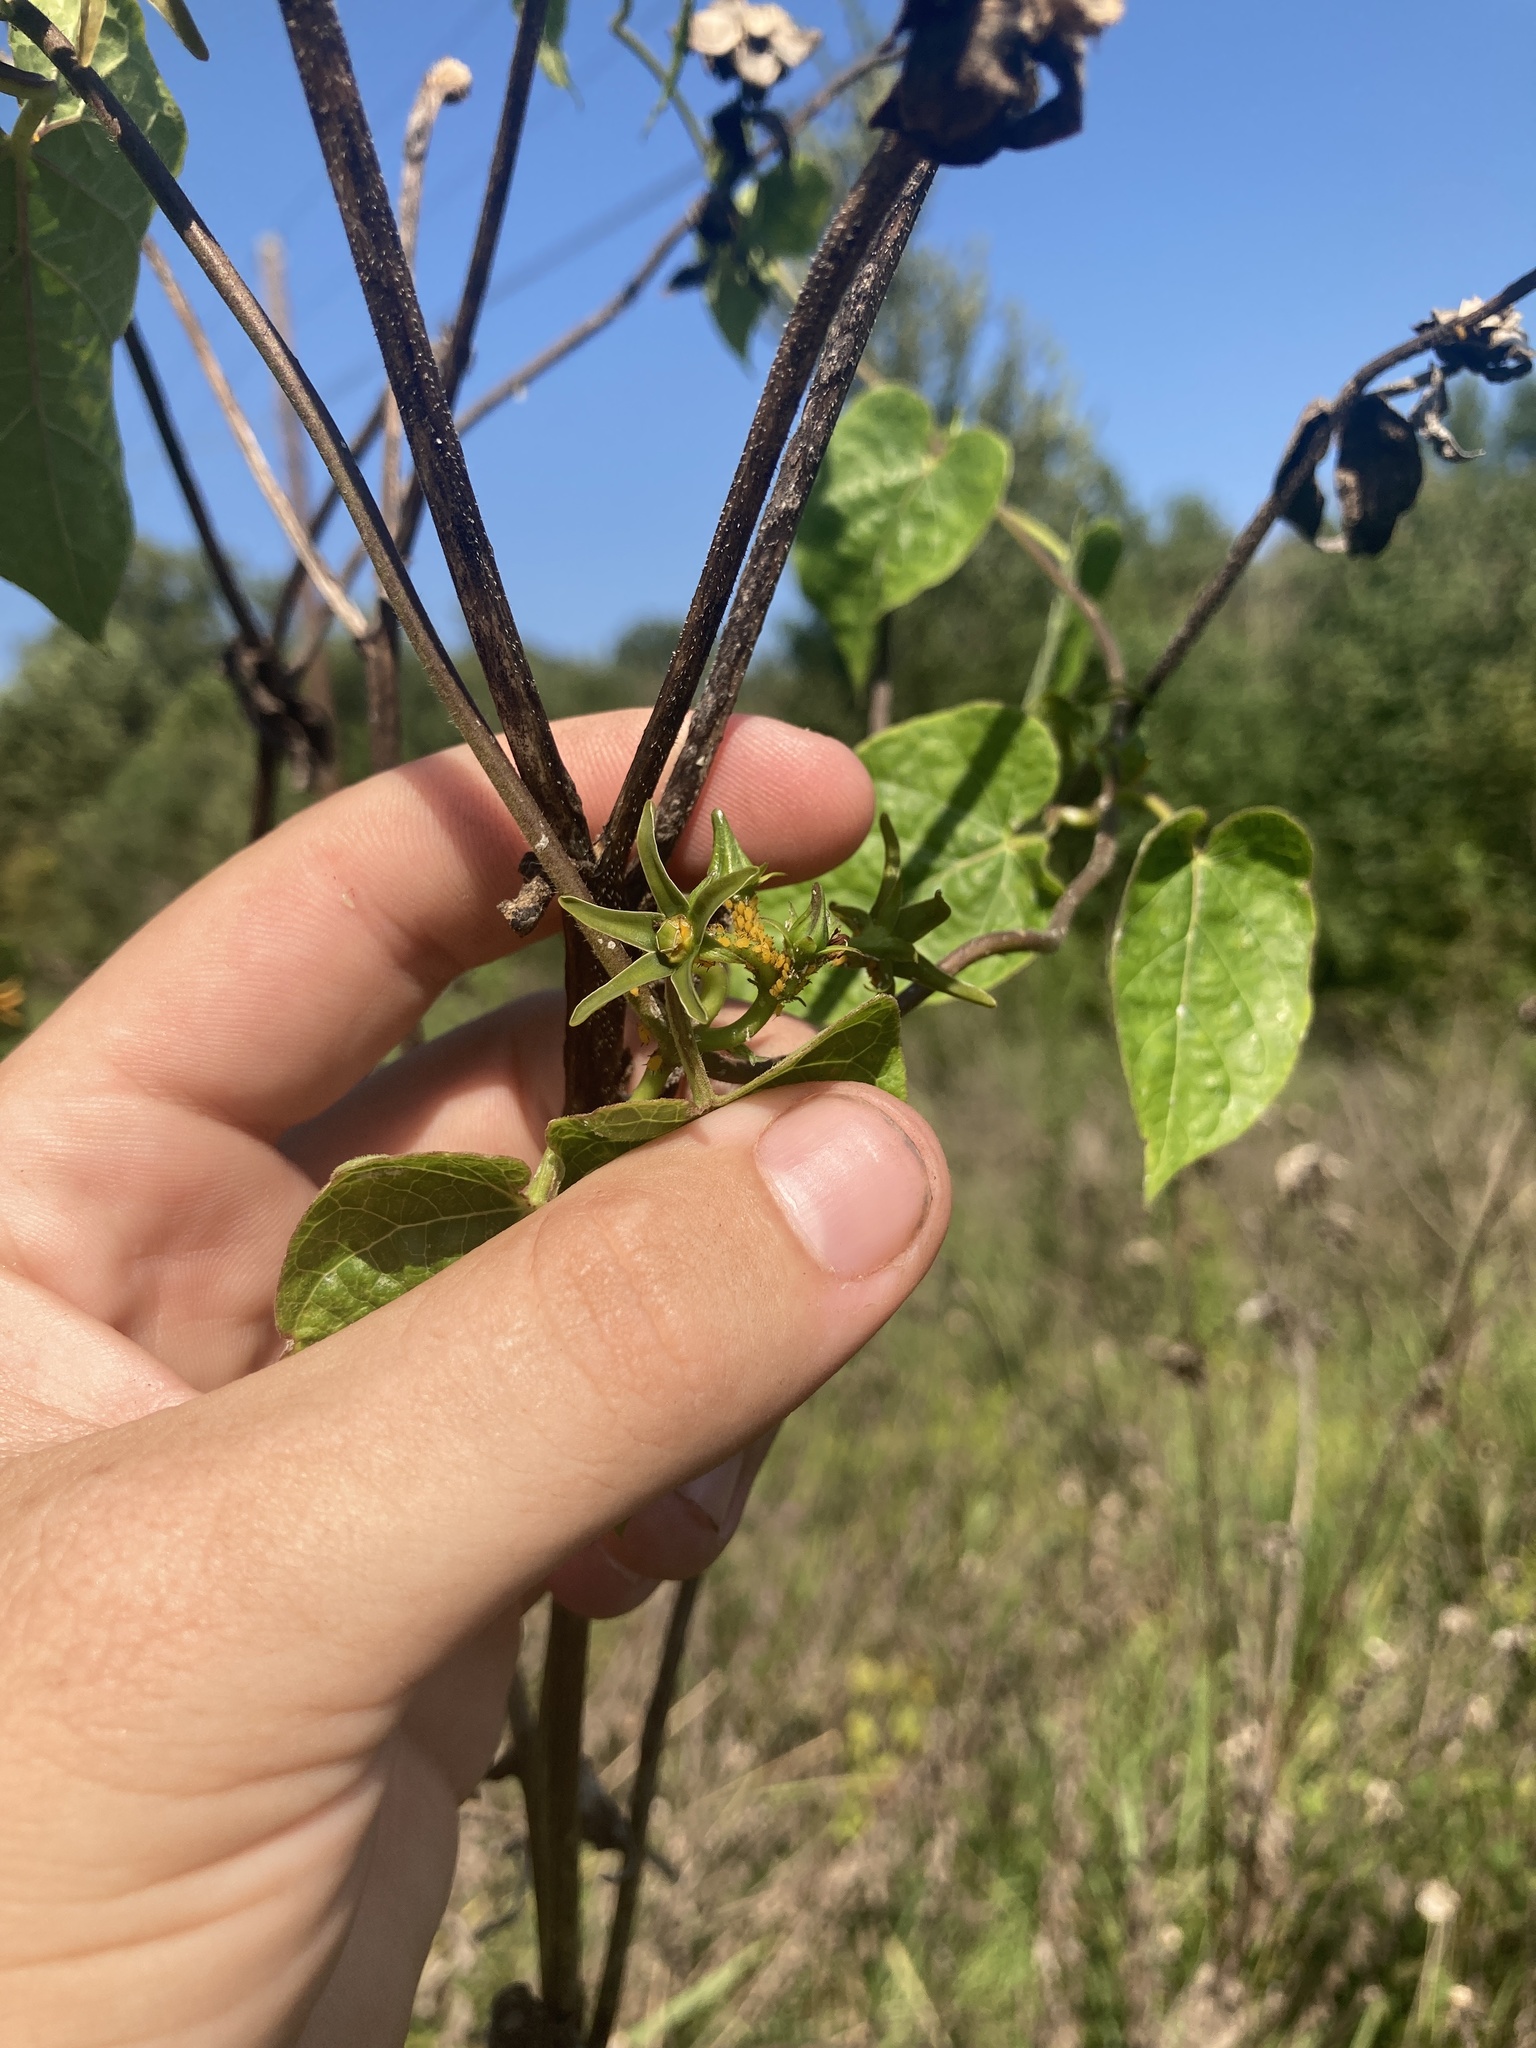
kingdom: Plantae
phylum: Tracheophyta
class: Magnoliopsida
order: Gentianales
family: Apocynaceae
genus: Gonolobus
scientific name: Gonolobus suberosus
